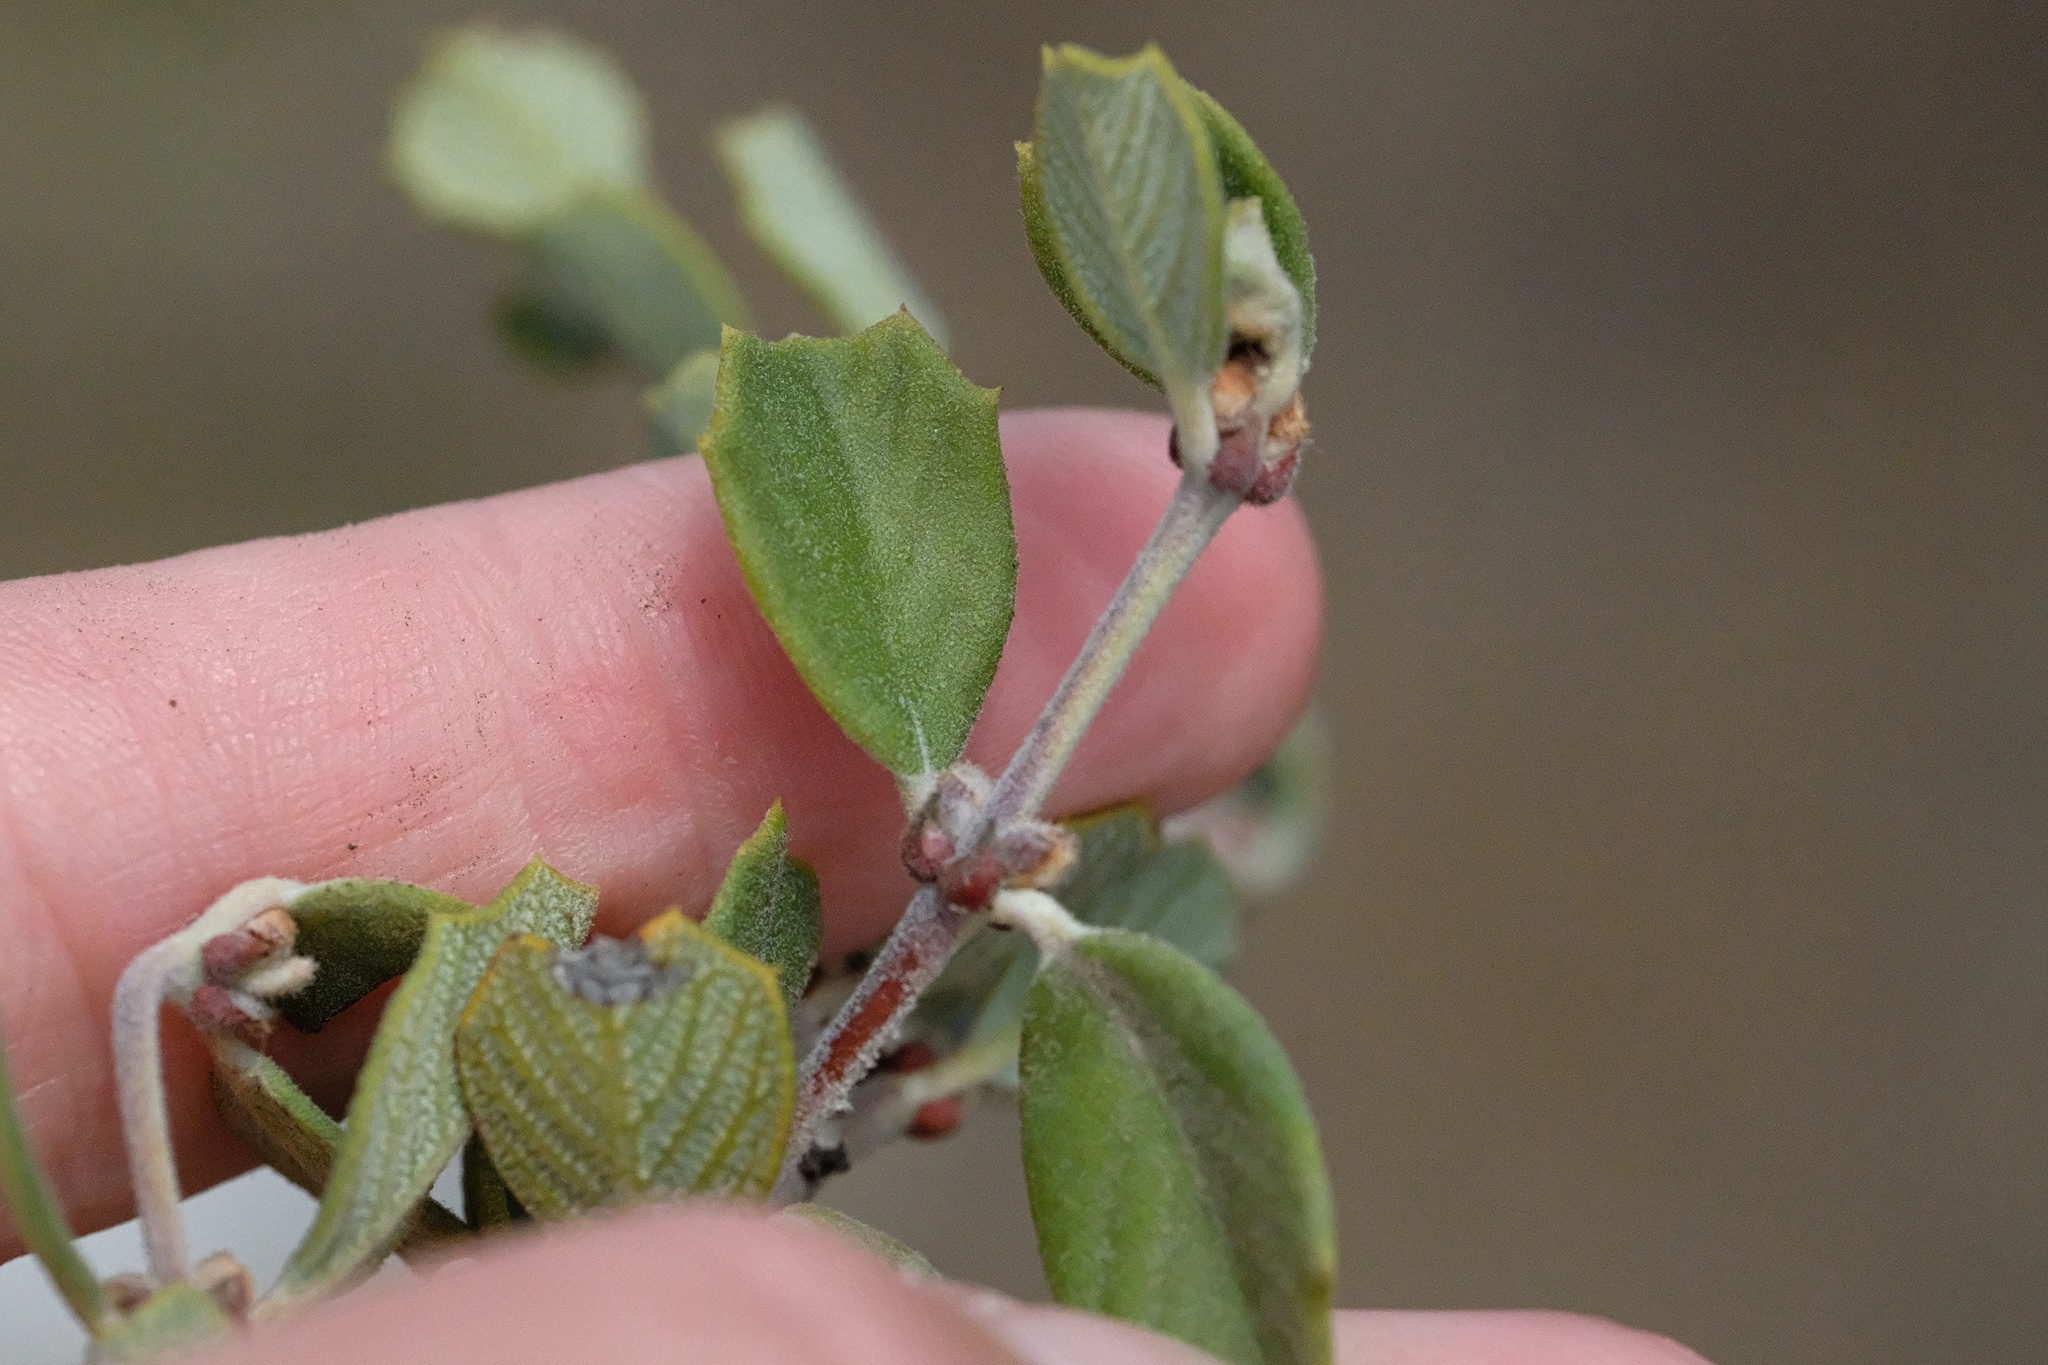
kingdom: Plantae
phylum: Tracheophyta
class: Magnoliopsida
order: Rosales
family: Rhamnaceae
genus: Ceanothus
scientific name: Ceanothus perplexans
